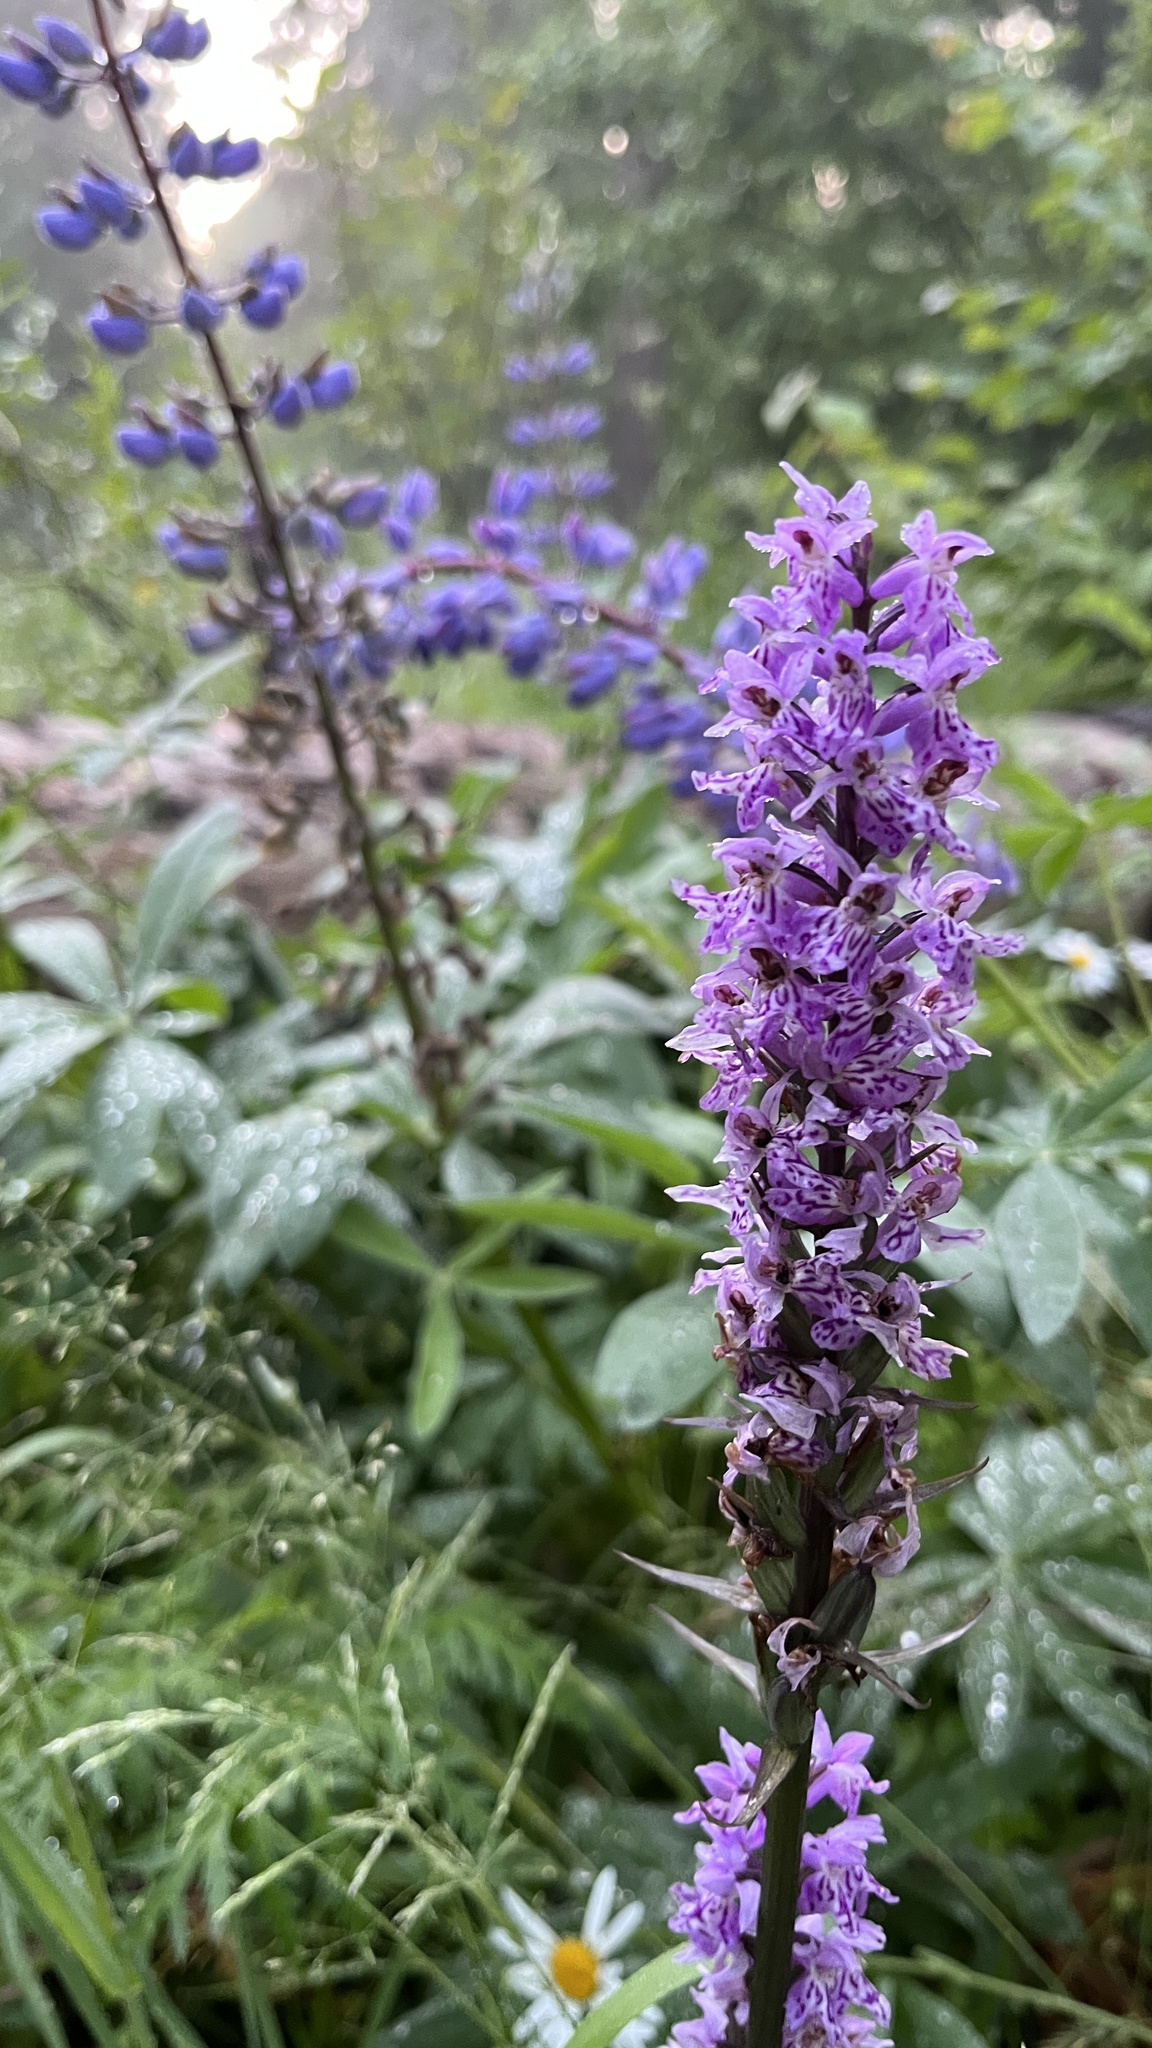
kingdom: Plantae
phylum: Tracheophyta
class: Liliopsida
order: Asparagales
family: Orchidaceae
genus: Dactylorhiza
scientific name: Dactylorhiza maculata
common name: Heath spotted-orchid
